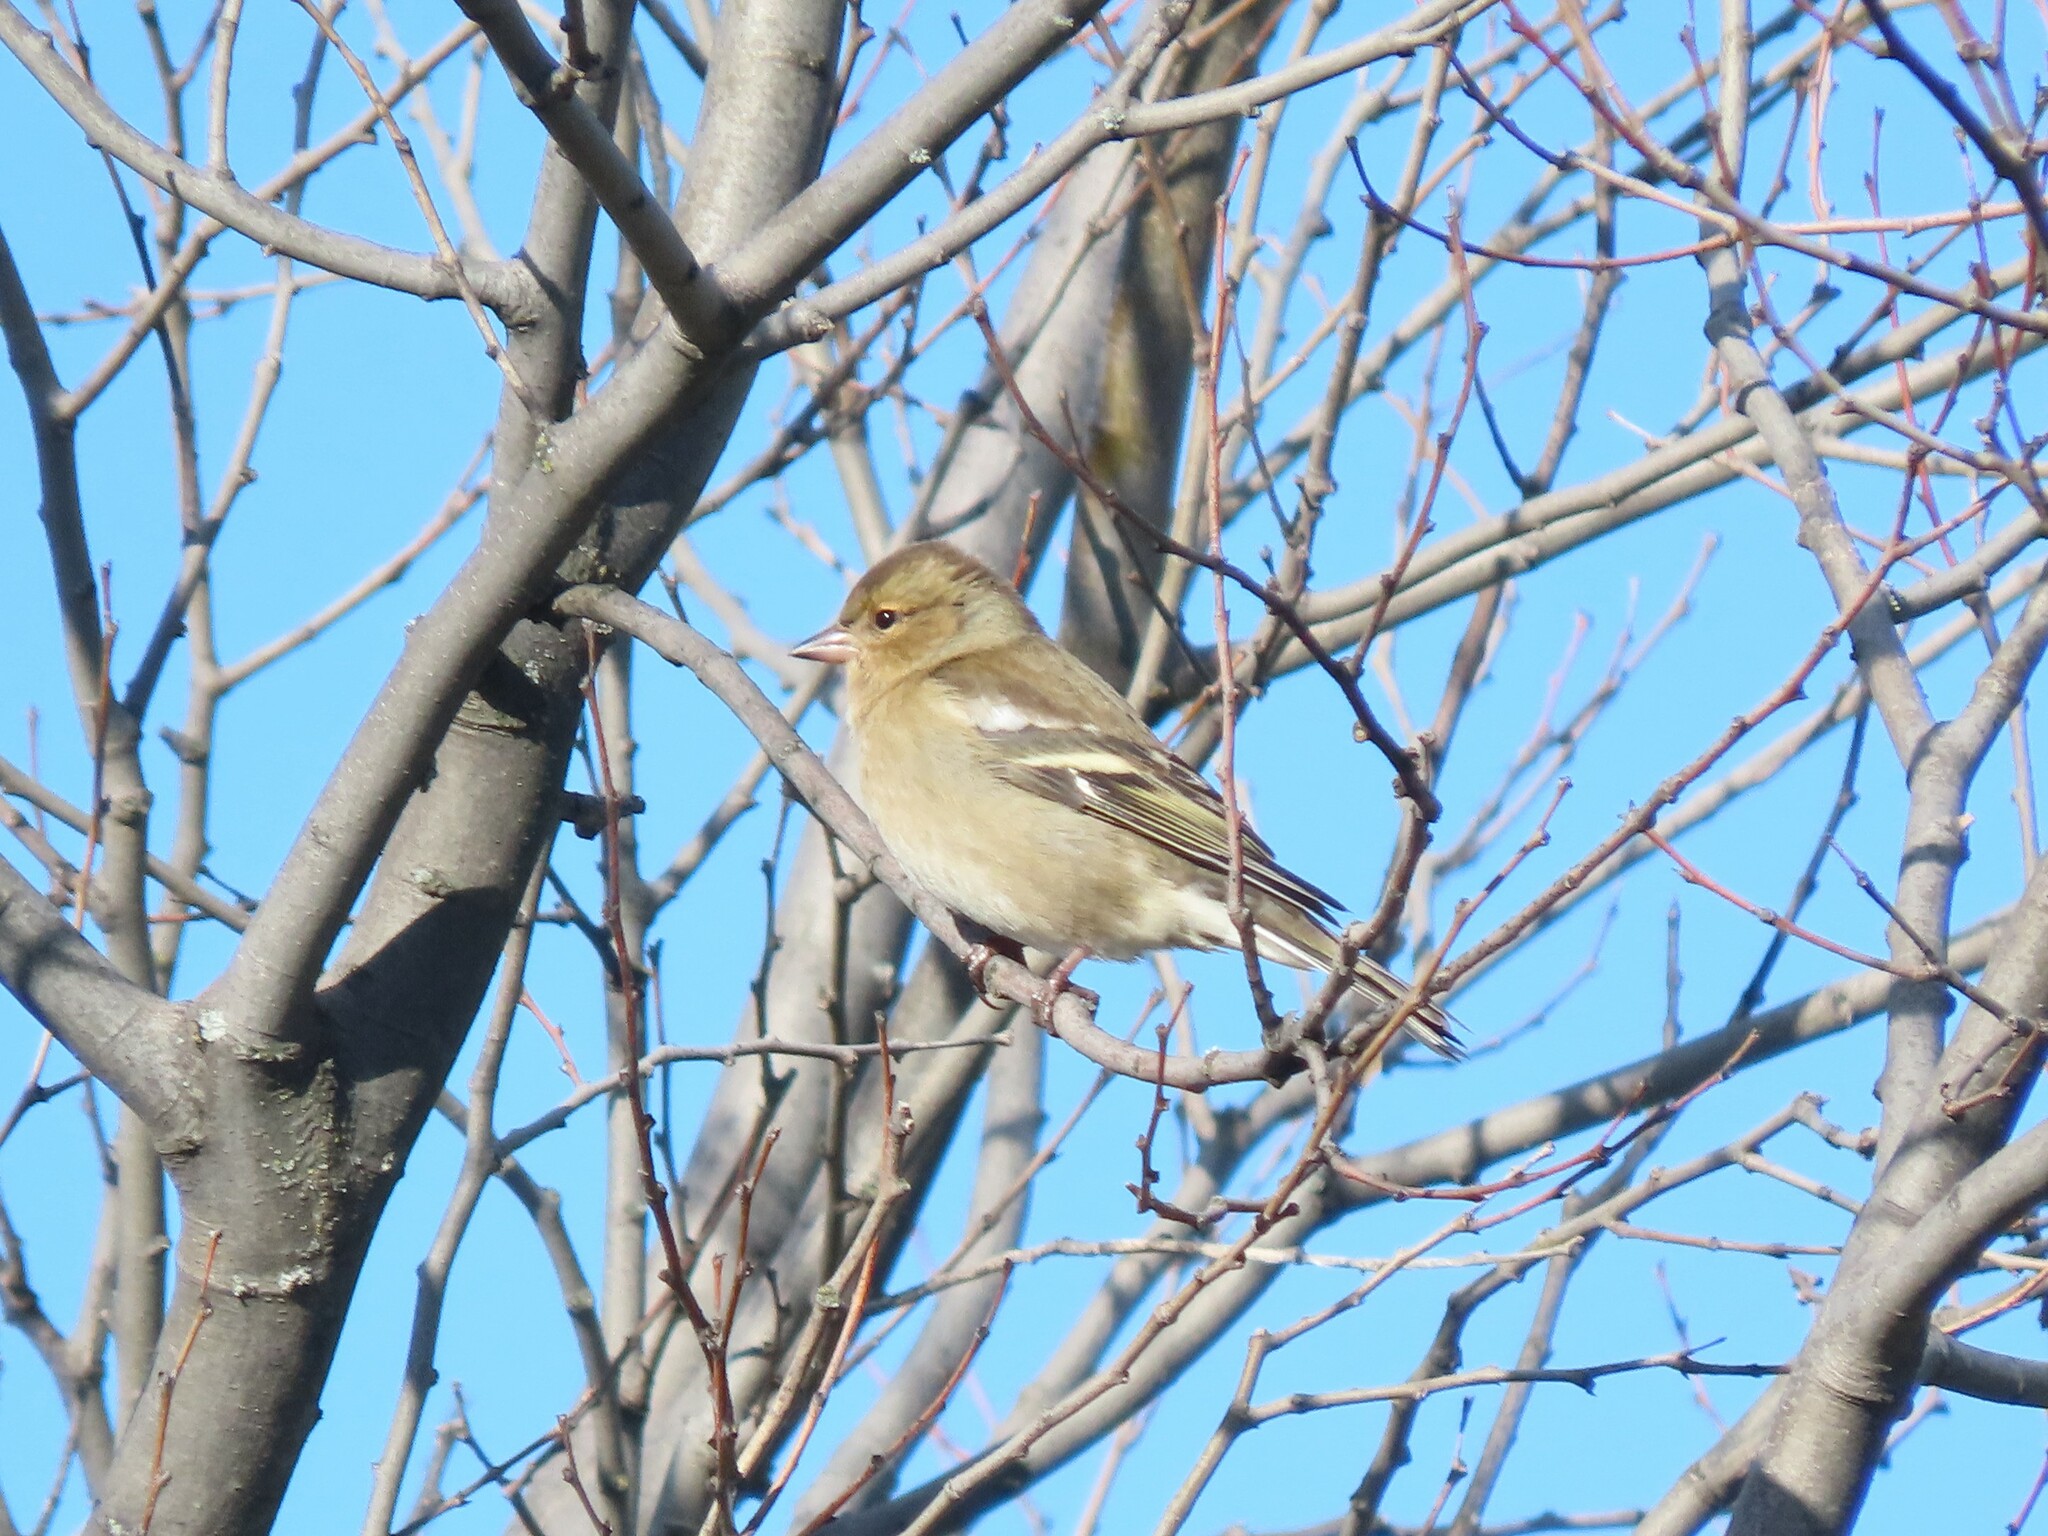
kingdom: Animalia
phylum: Chordata
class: Aves
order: Passeriformes
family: Fringillidae
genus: Fringilla
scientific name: Fringilla coelebs
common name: Common chaffinch
